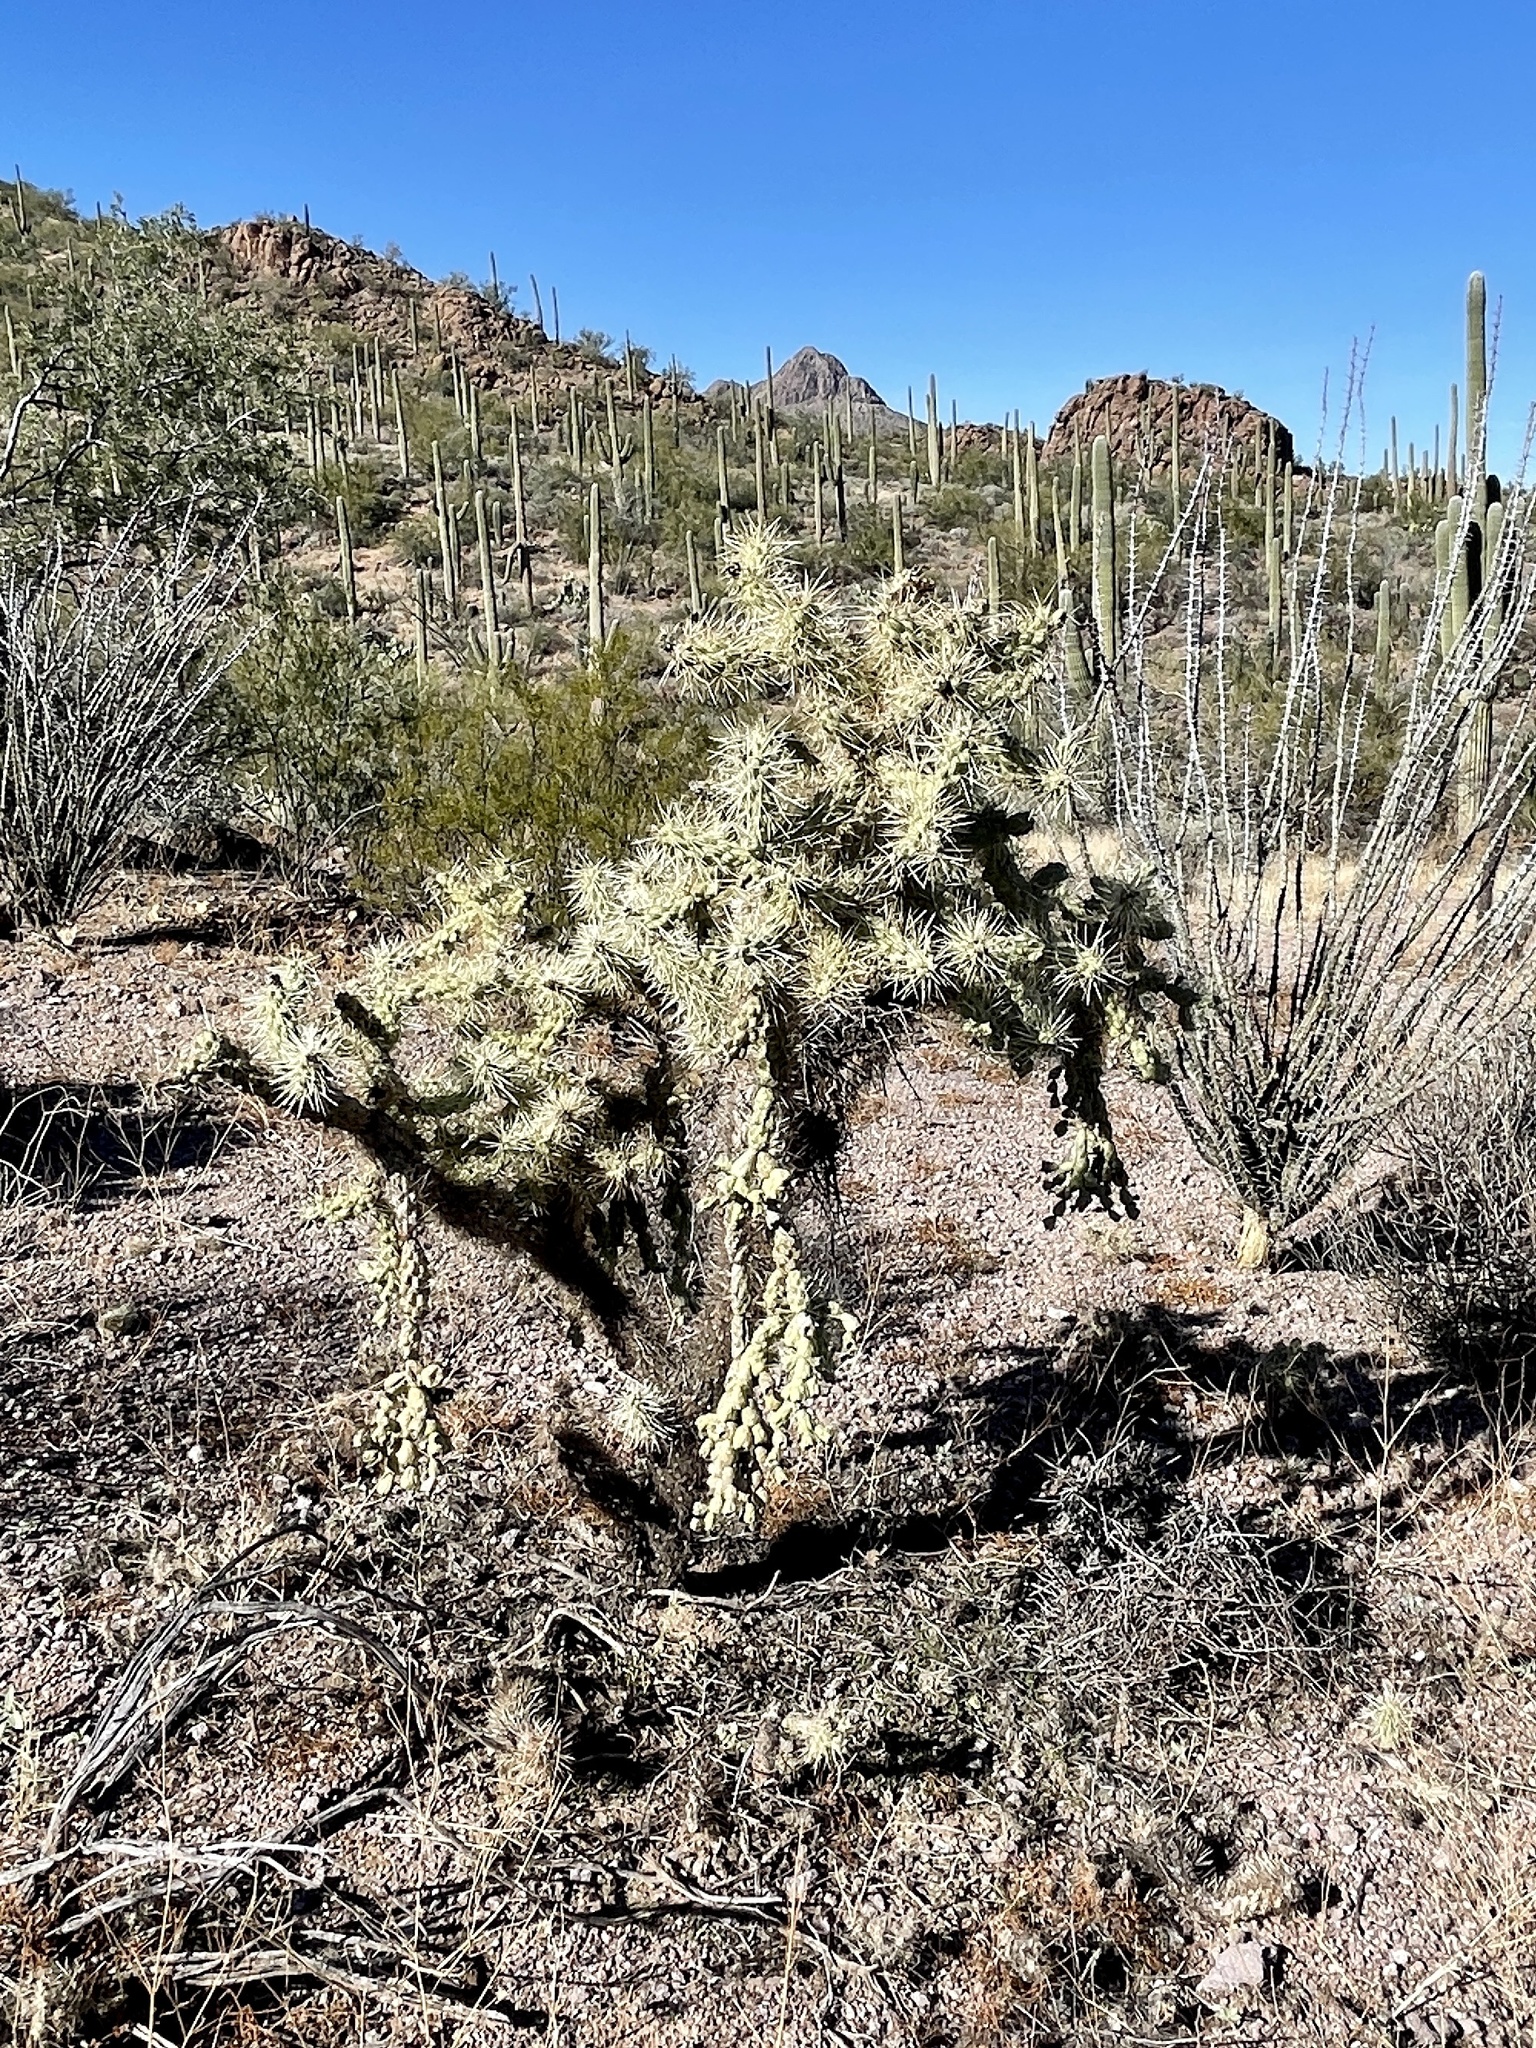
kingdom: Plantae
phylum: Tracheophyta
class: Magnoliopsida
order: Caryophyllales
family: Cactaceae
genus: Cylindropuntia
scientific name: Cylindropuntia fulgida
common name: Jumping cholla
